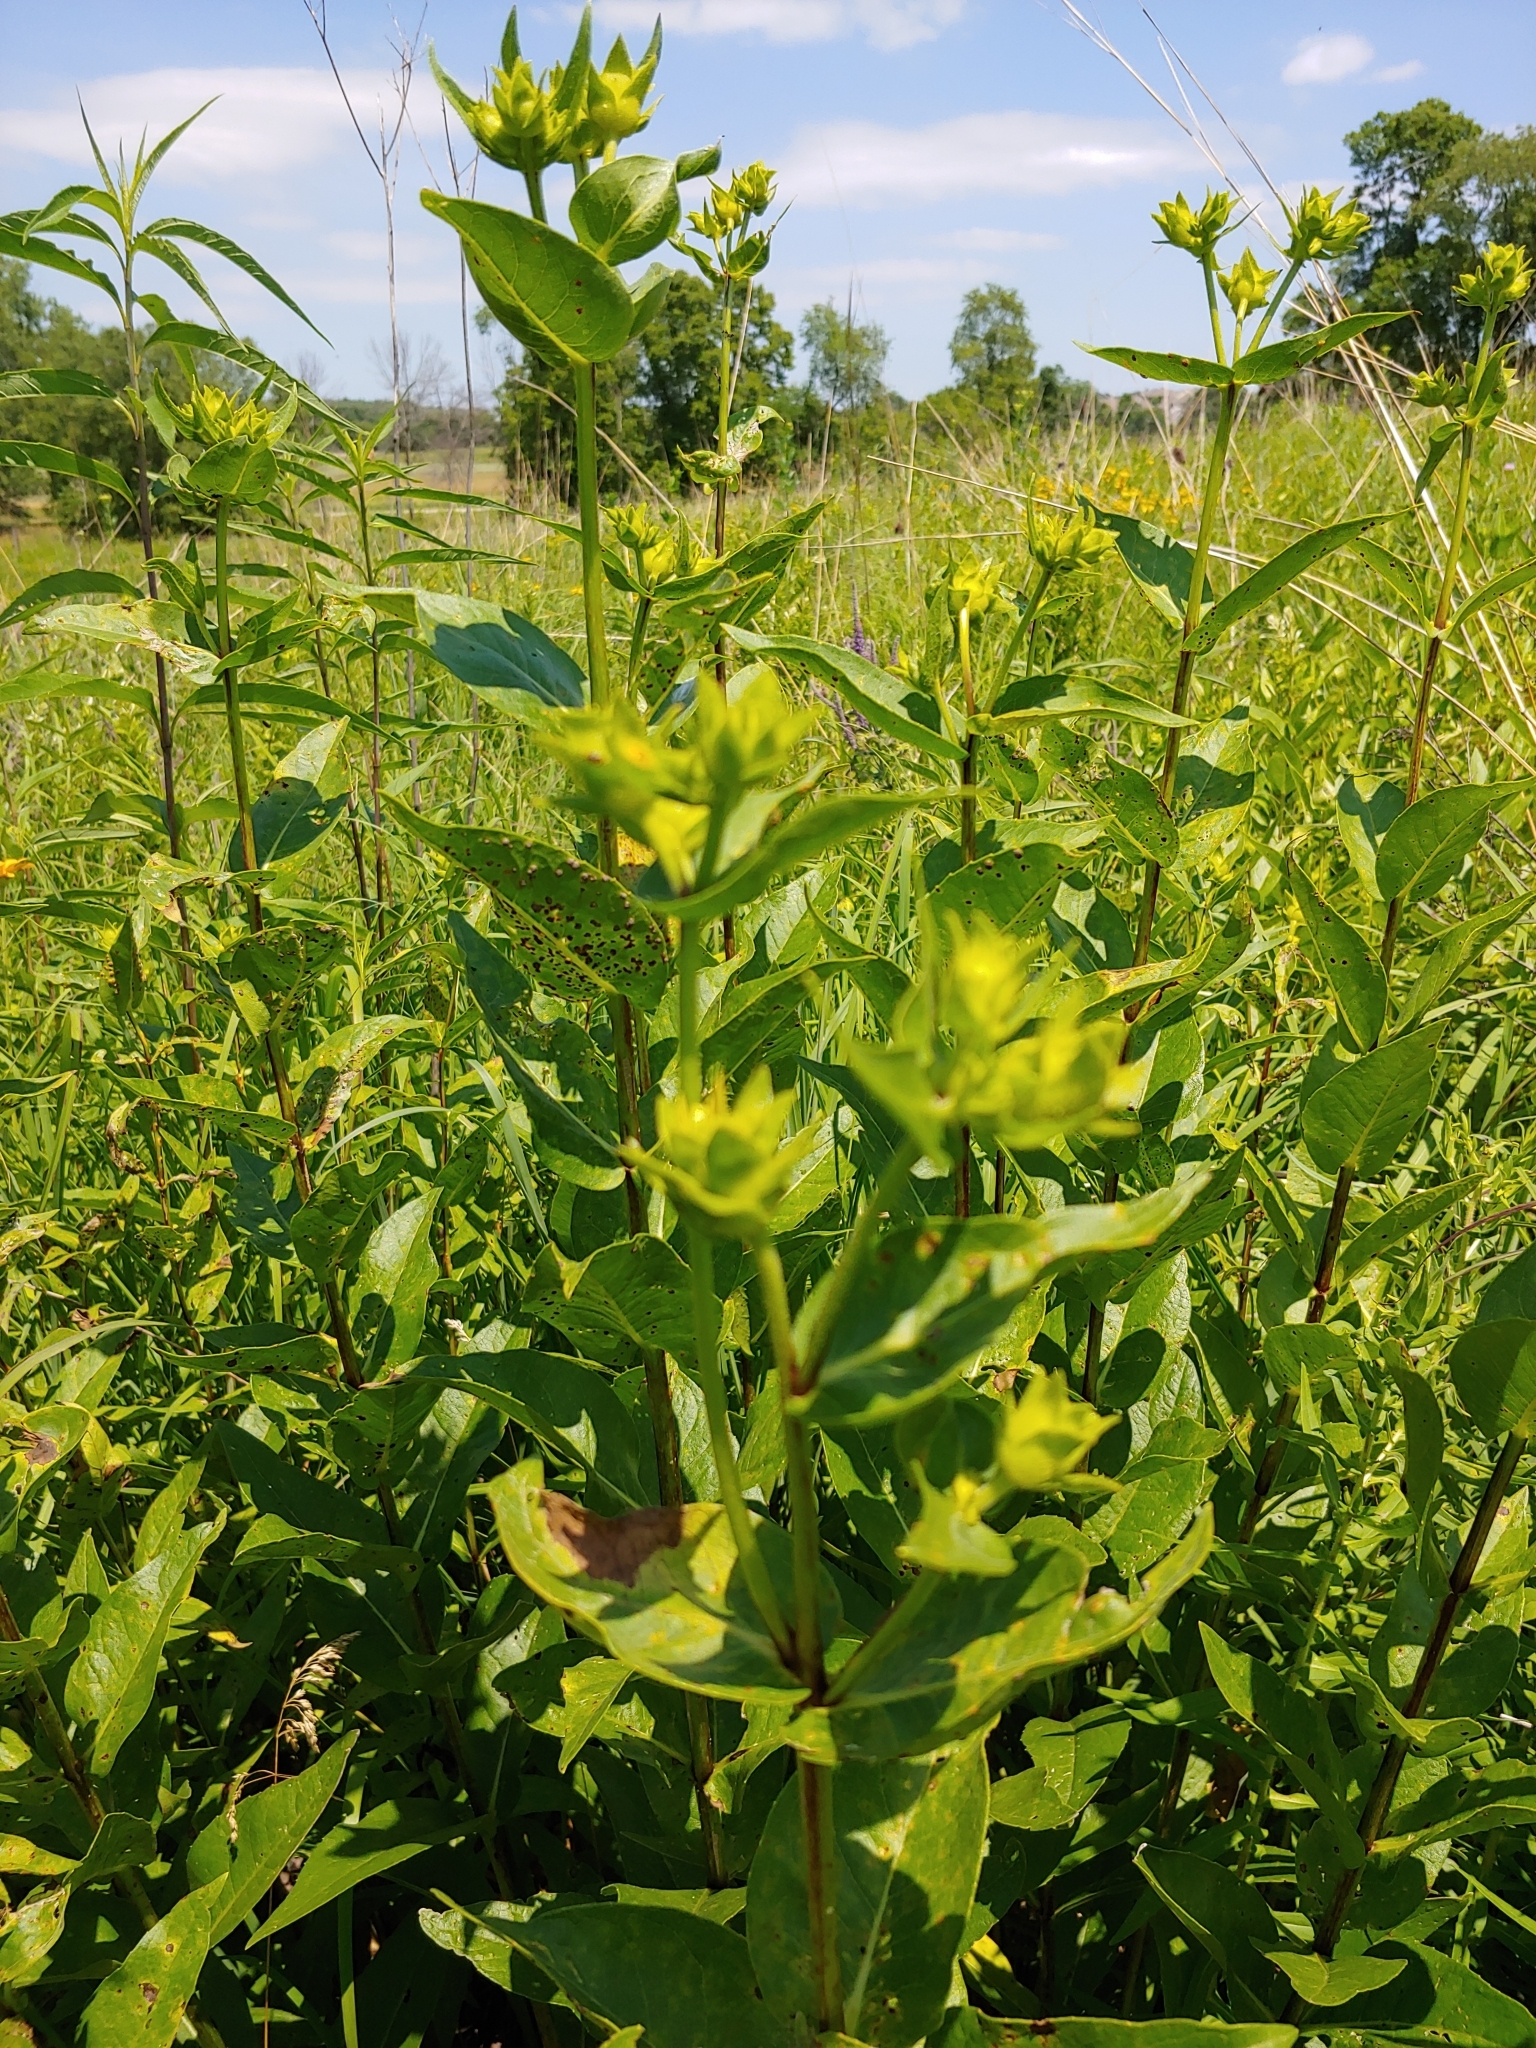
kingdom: Plantae
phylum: Tracheophyta
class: Magnoliopsida
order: Asterales
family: Asteraceae
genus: Silphium
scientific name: Silphium integrifolium
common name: Whole-leaf rosinweed
